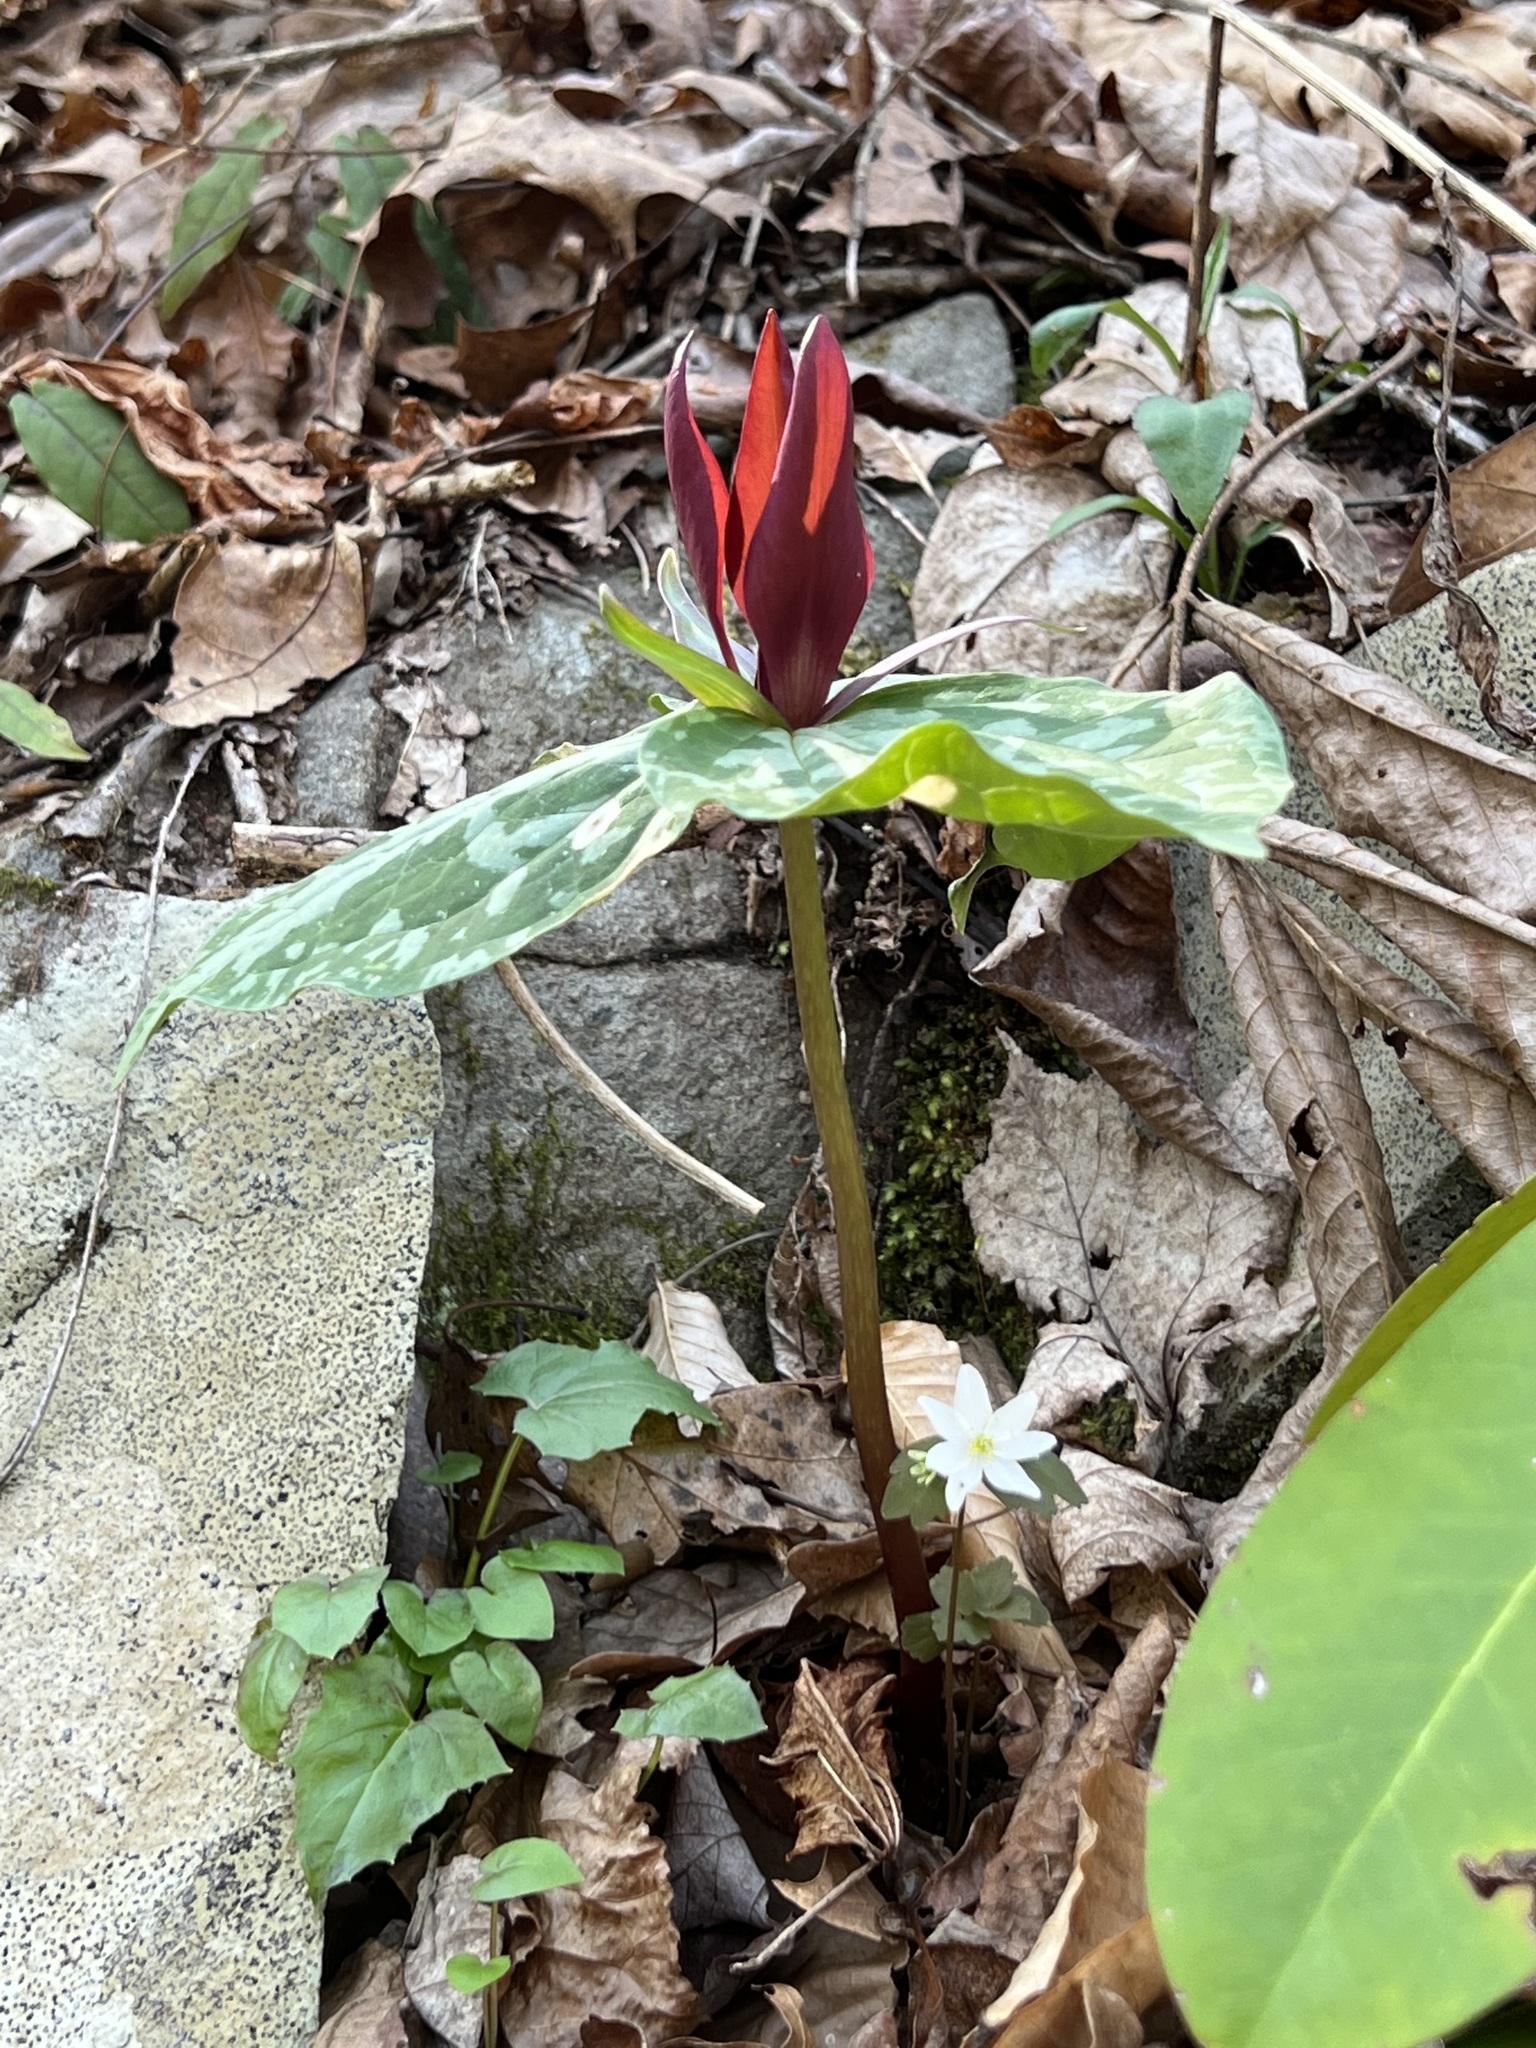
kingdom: Plantae
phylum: Tracheophyta
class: Liliopsida
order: Liliales
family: Melanthiaceae
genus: Trillium
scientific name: Trillium cuneatum
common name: Cuneate trillium
